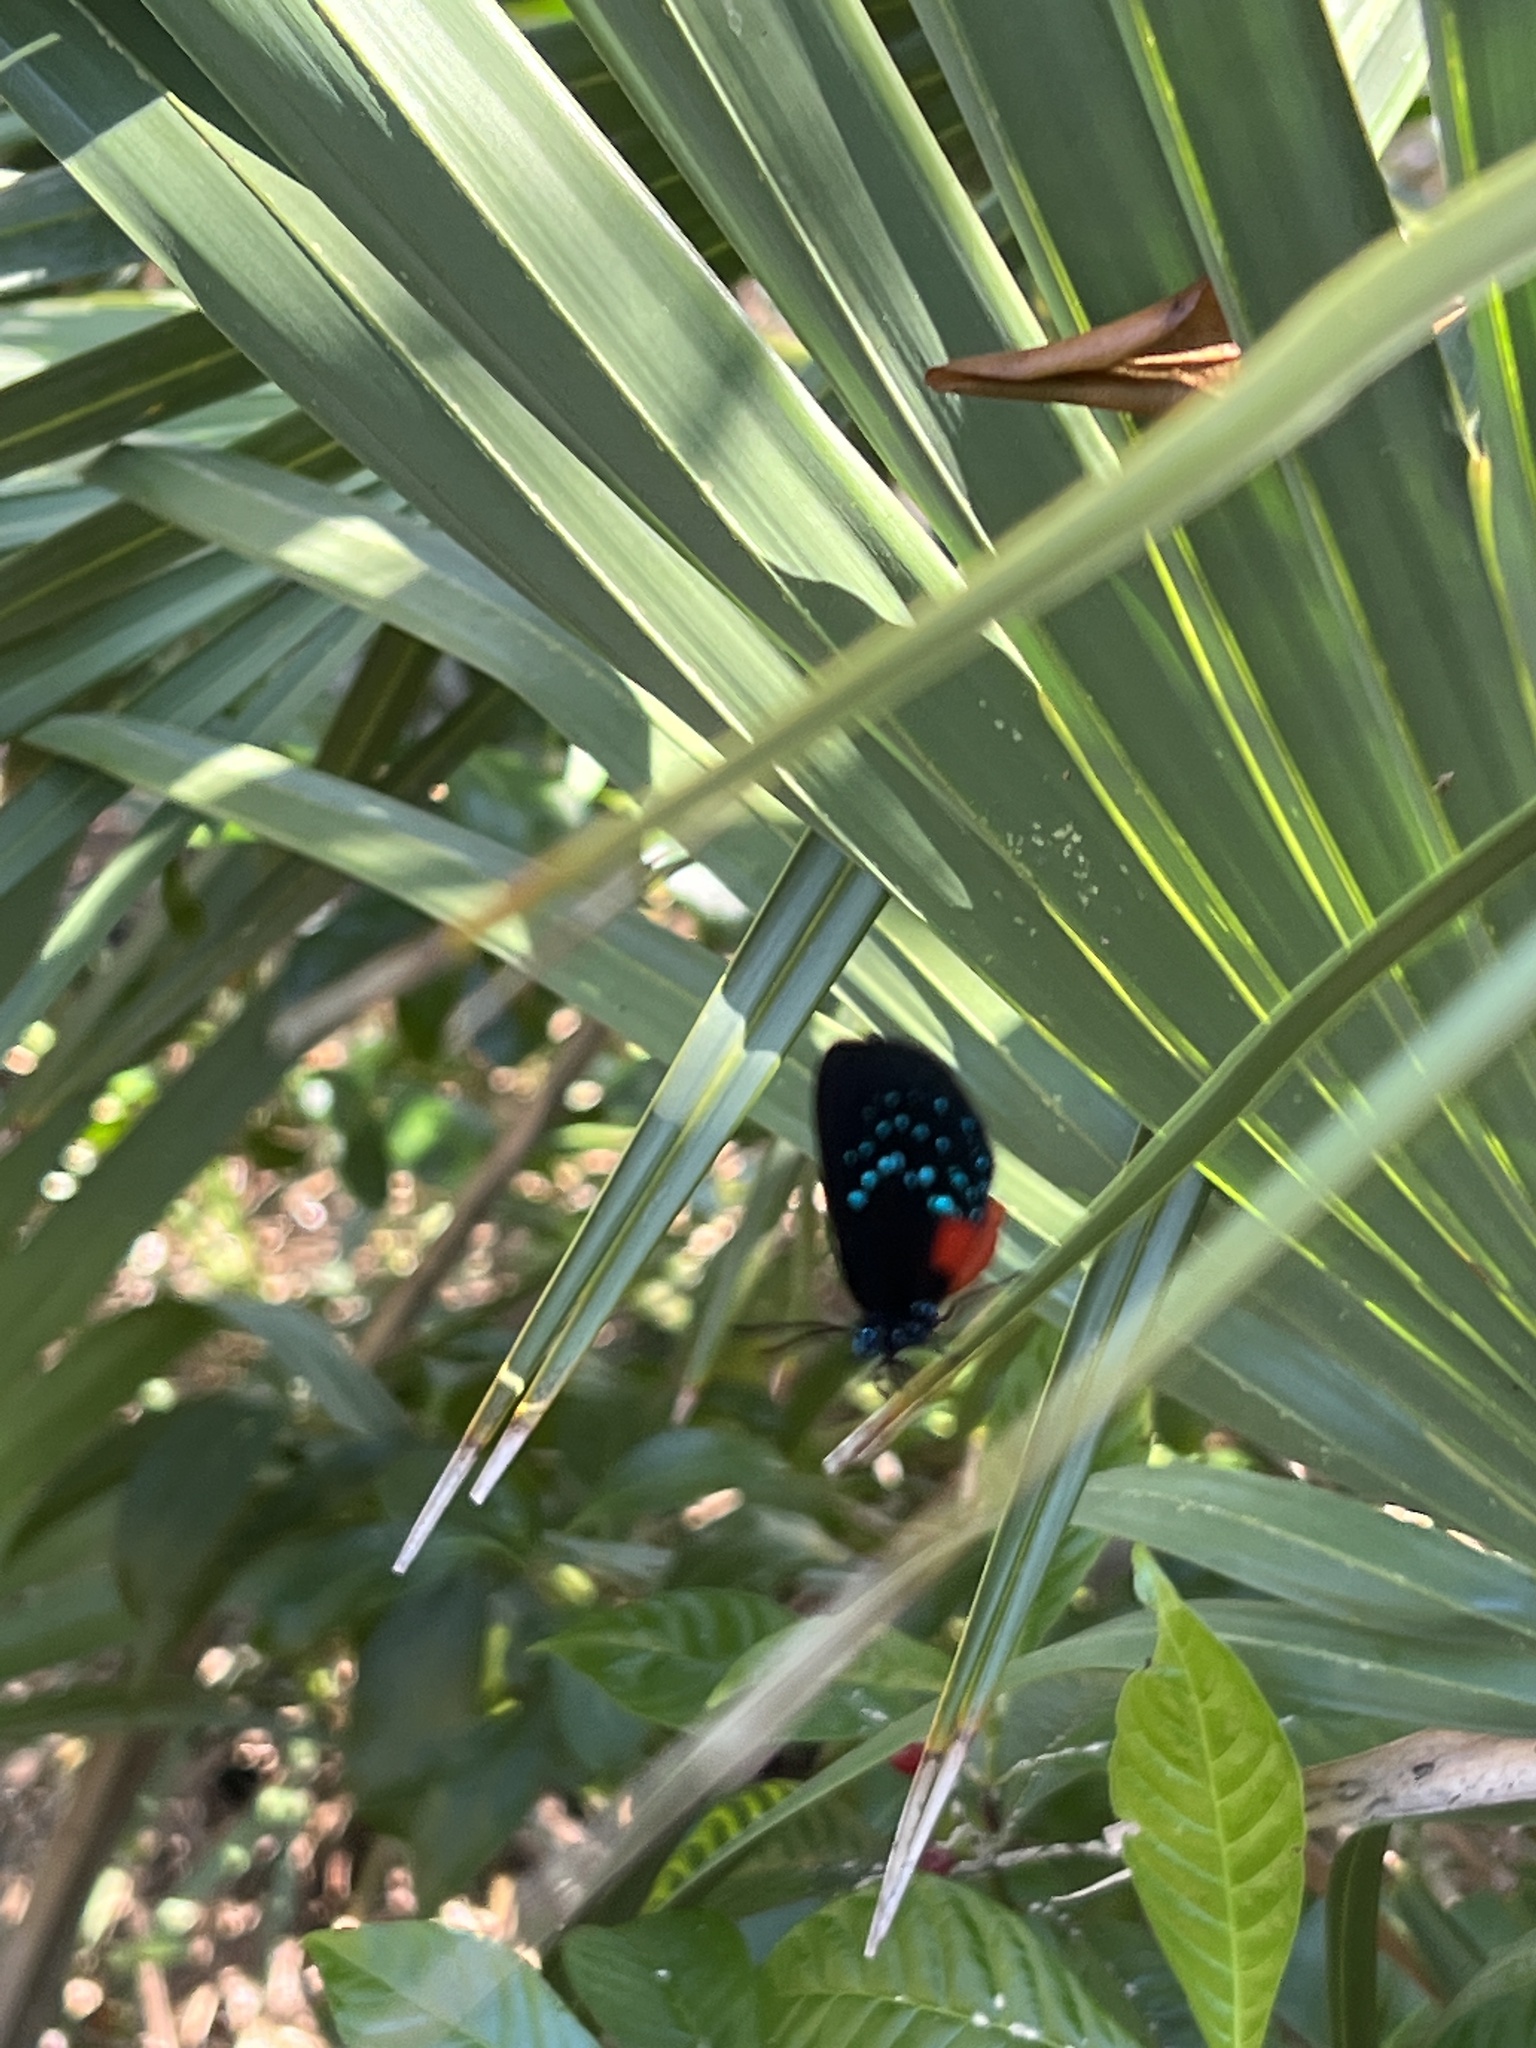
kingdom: Animalia
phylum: Arthropoda
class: Insecta
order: Lepidoptera
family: Lycaenidae
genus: Eumaeus
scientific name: Eumaeus atala
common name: Atala
